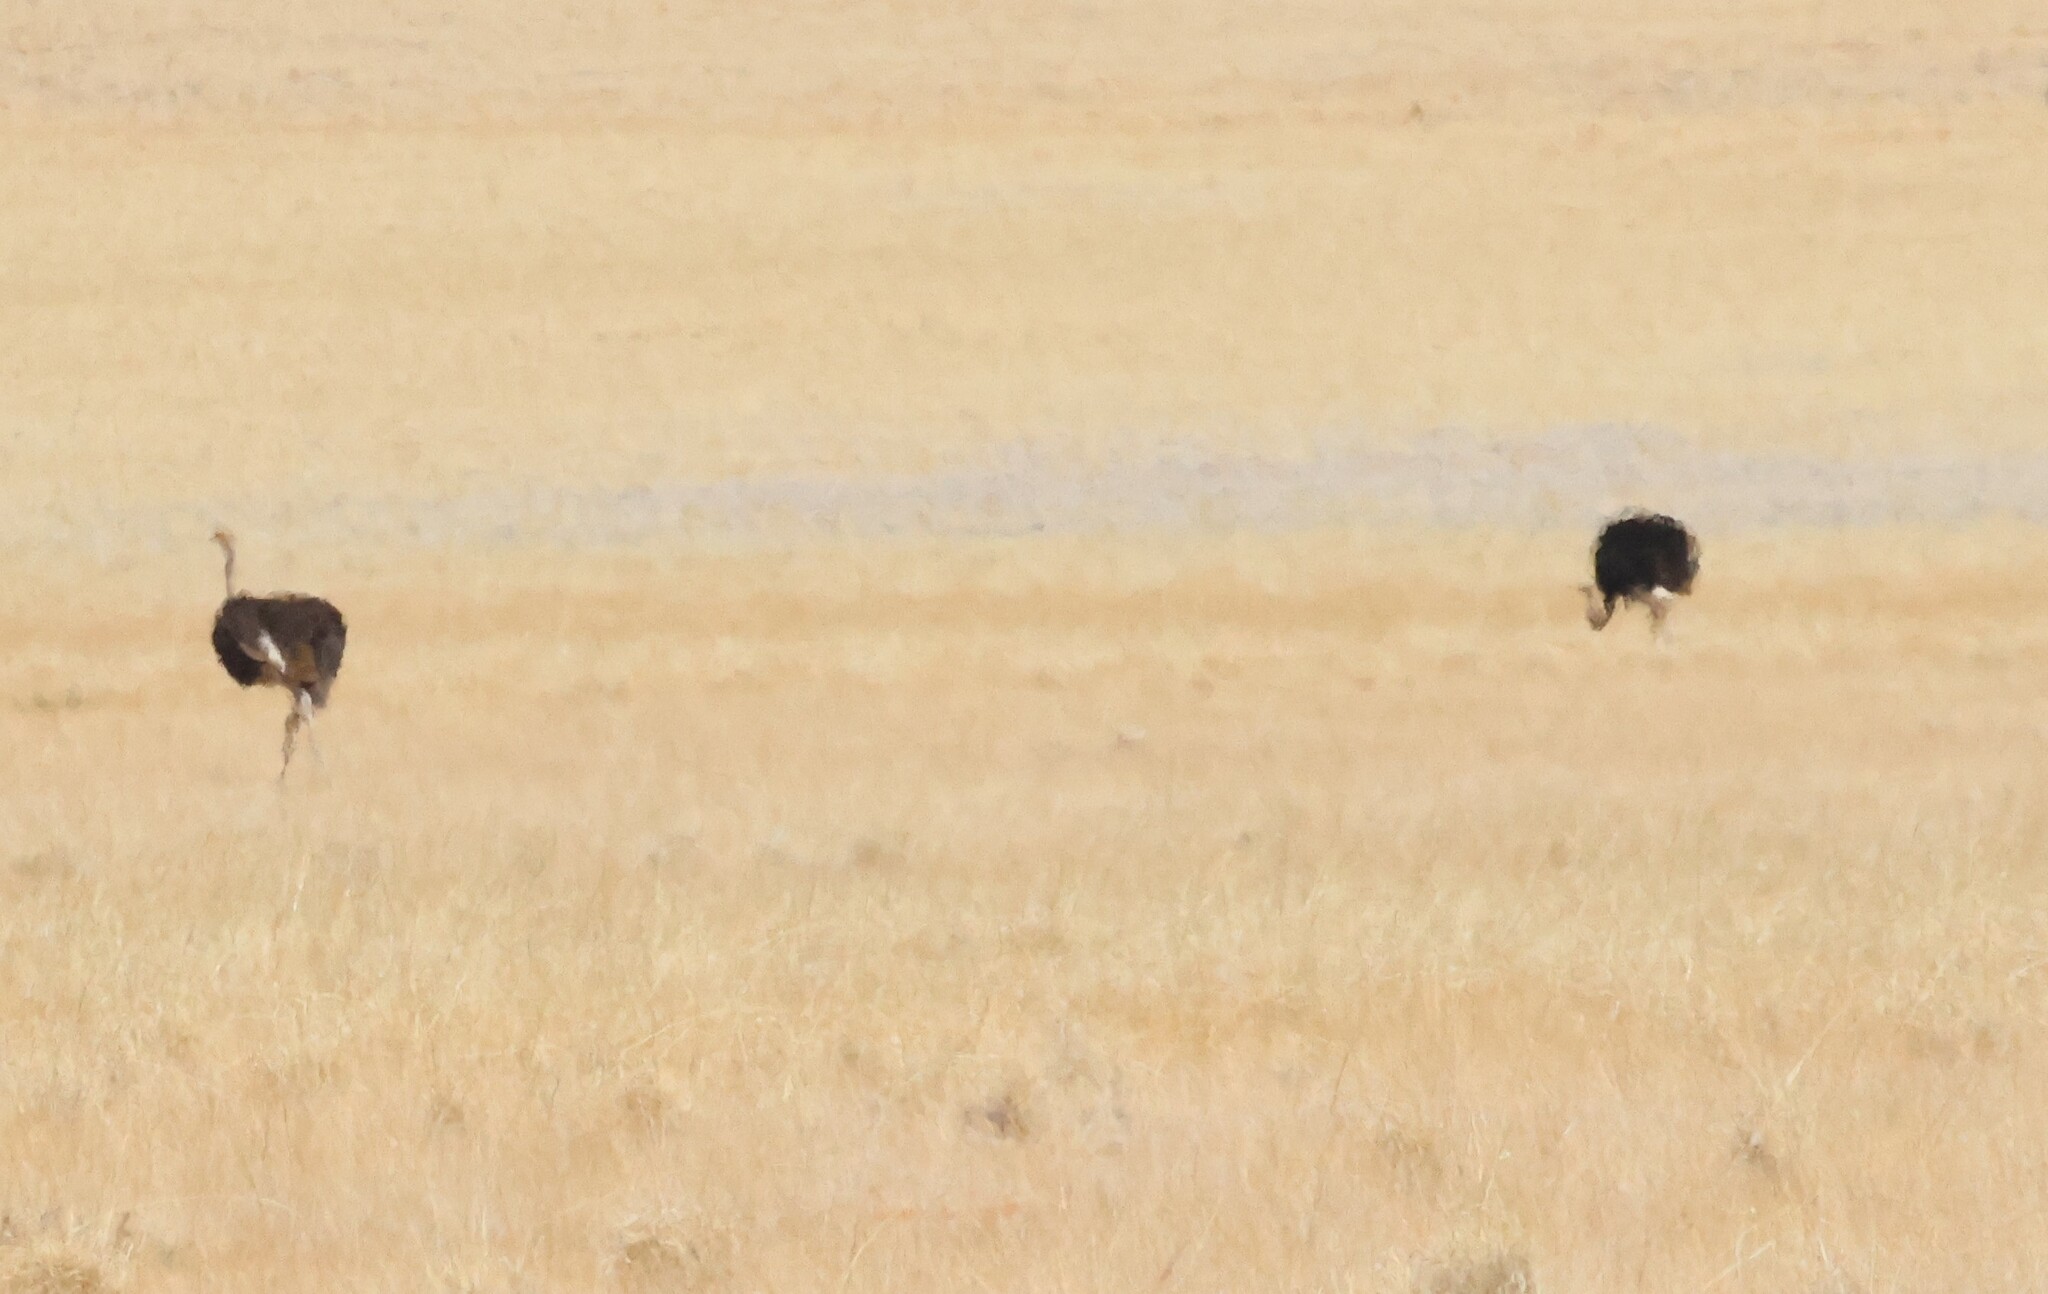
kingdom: Animalia
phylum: Chordata
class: Aves
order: Struthioniformes
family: Struthionidae
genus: Struthio
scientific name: Struthio camelus
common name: Common ostrich
